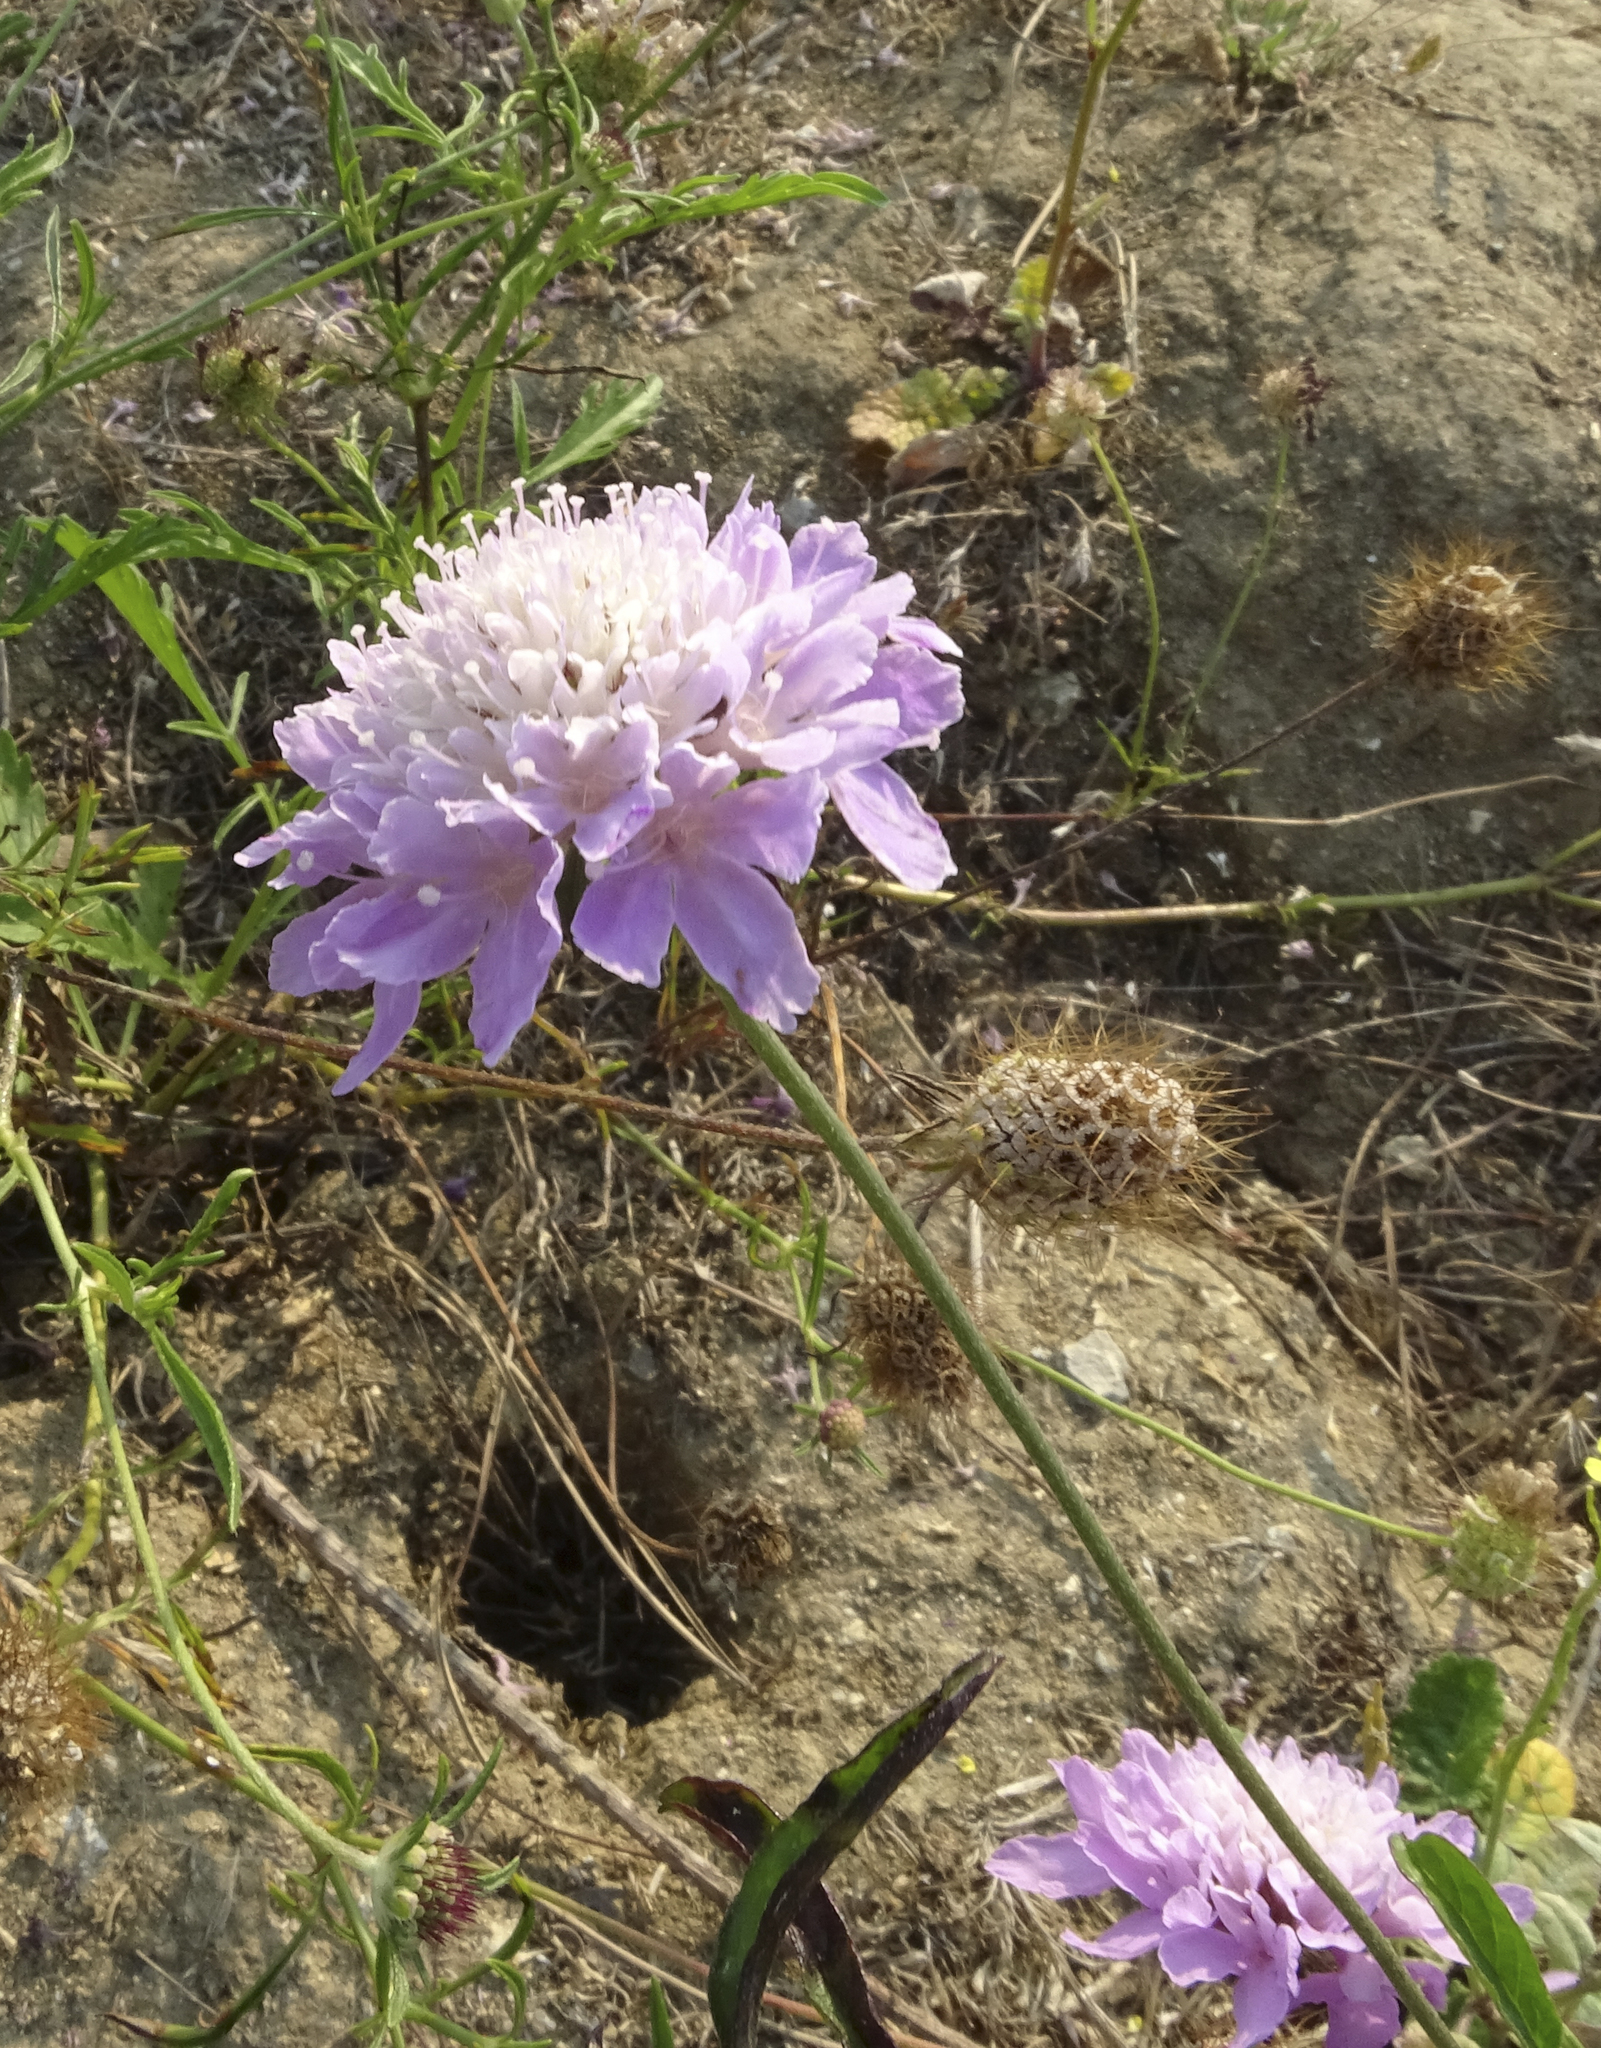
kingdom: Plantae
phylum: Tracheophyta
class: Magnoliopsida
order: Dipsacales
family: Caprifoliaceae
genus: Sixalix
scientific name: Sixalix atropurpurea
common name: Sweet scabious
